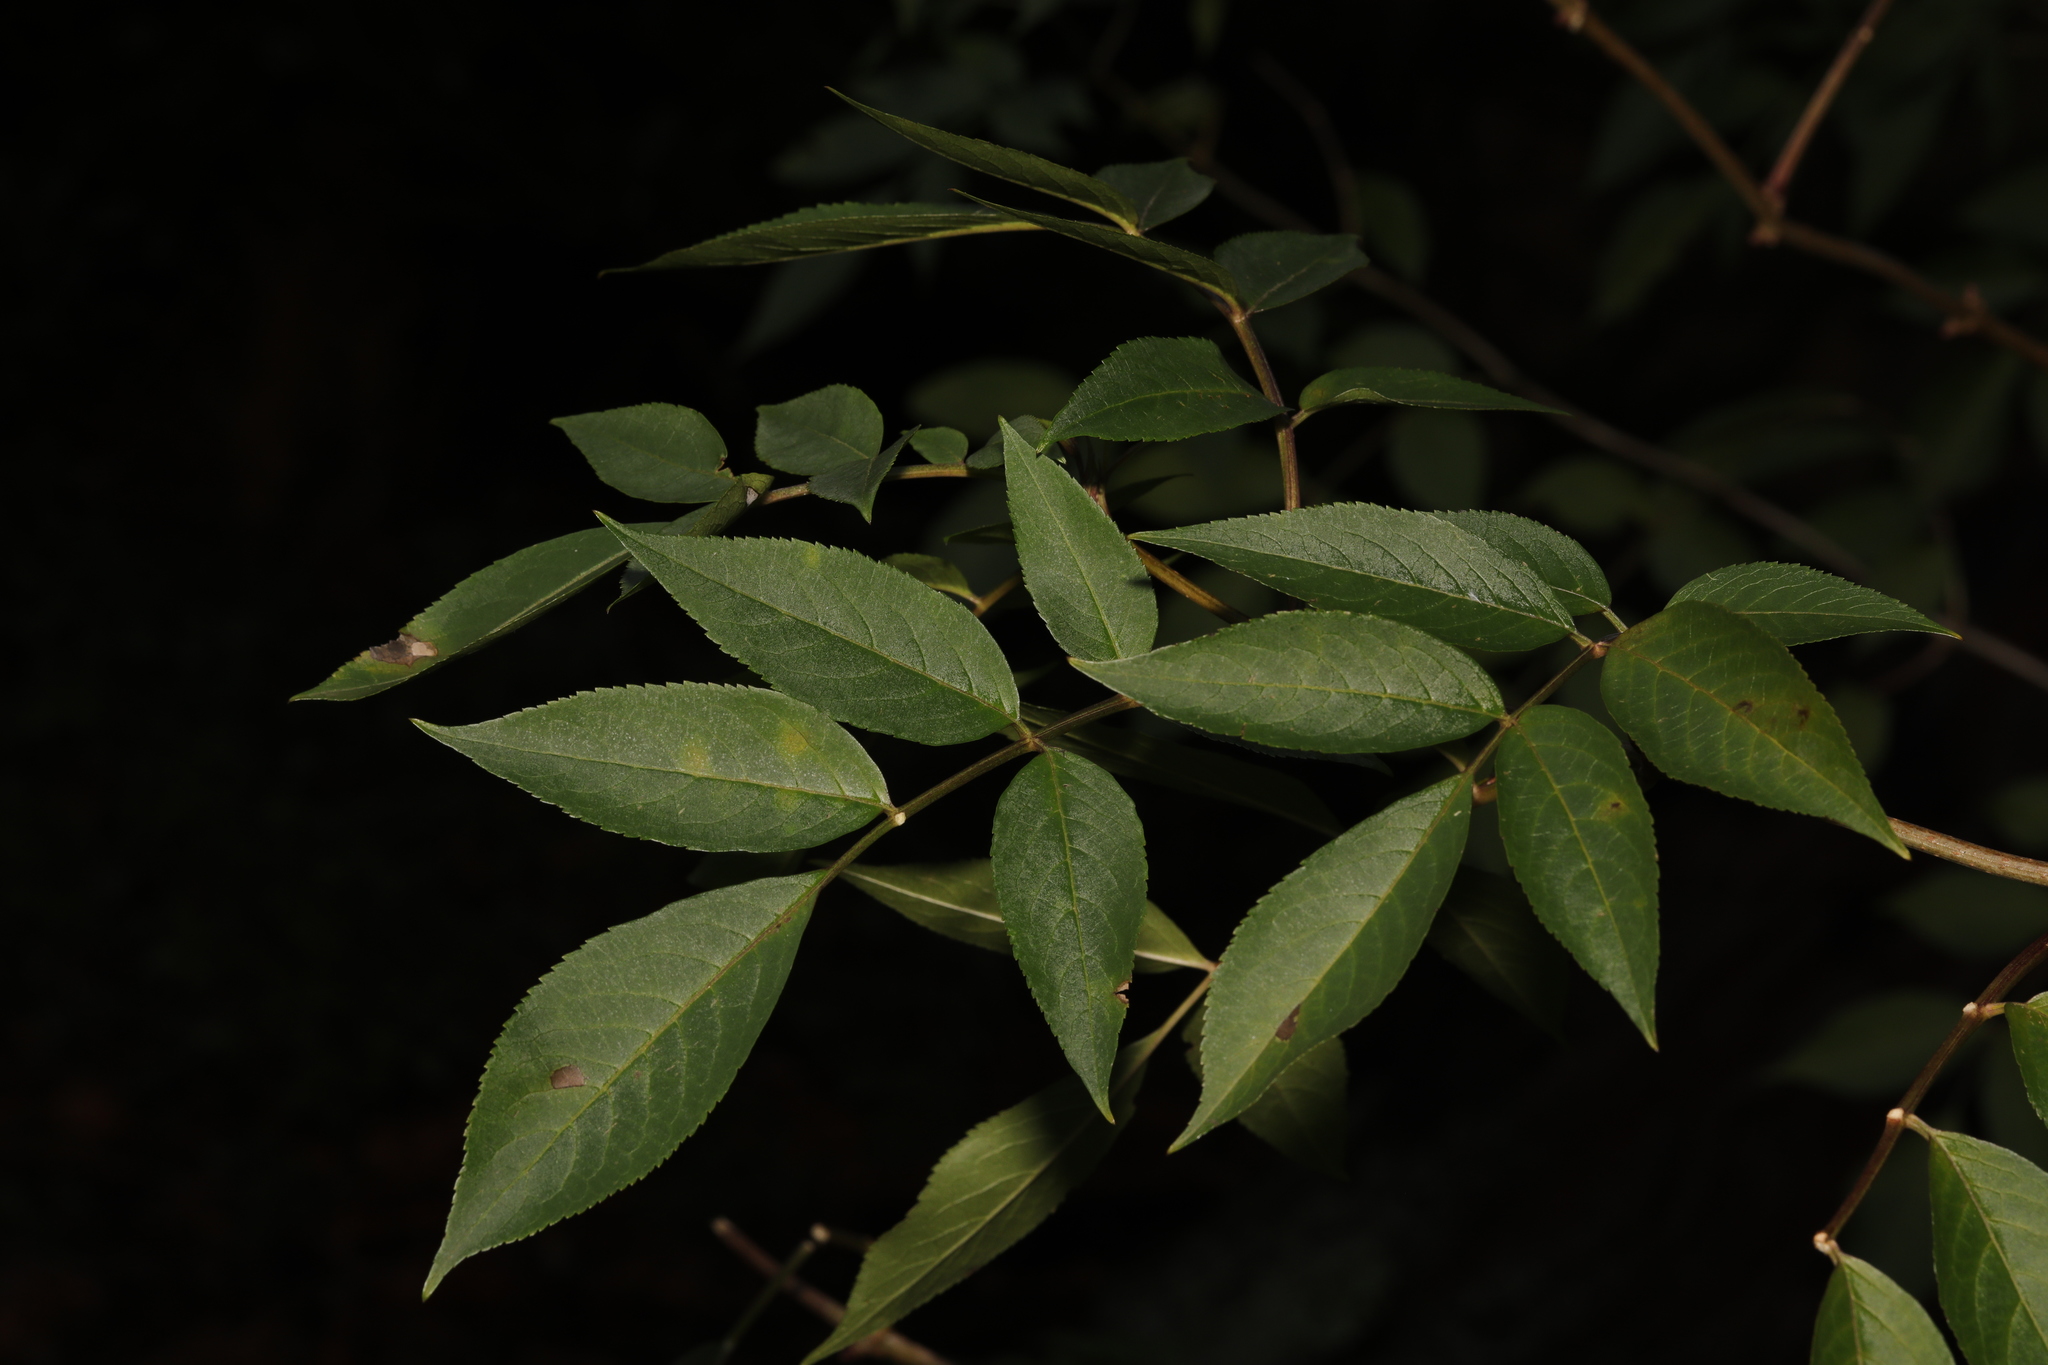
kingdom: Plantae
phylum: Tracheophyta
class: Magnoliopsida
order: Dipsacales
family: Viburnaceae
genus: Sambucus
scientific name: Sambucus nigra
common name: Elder
